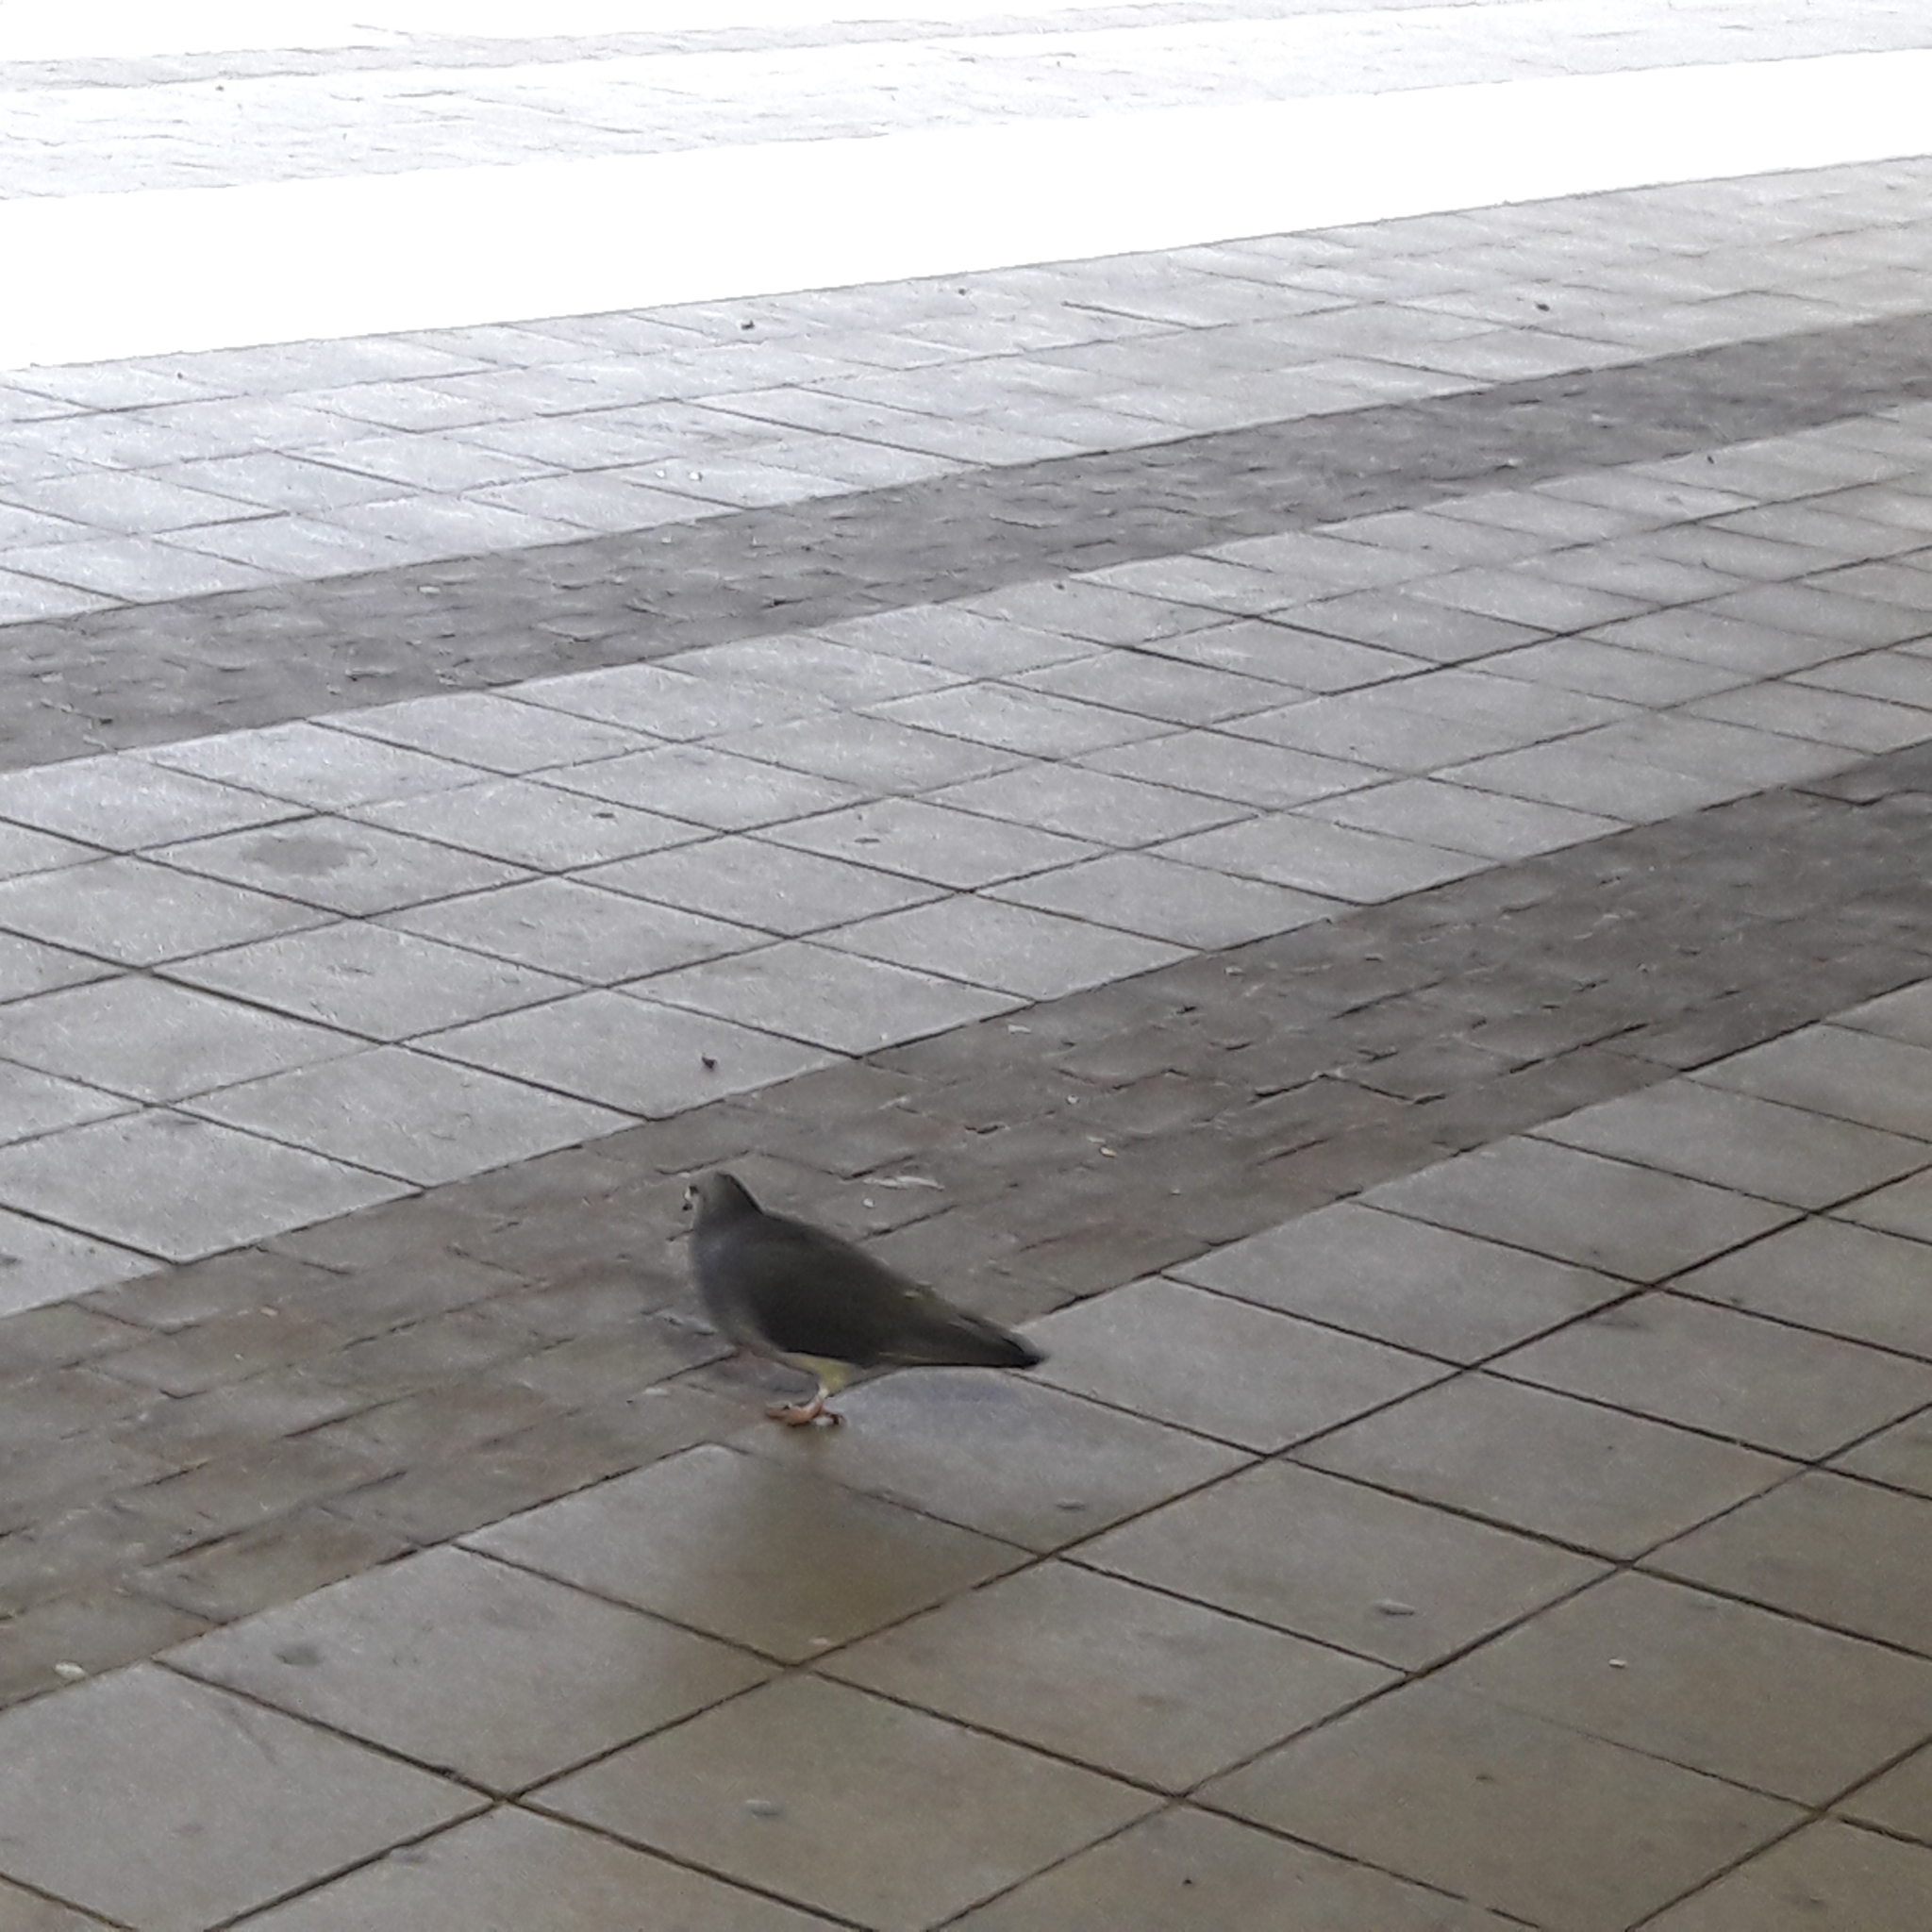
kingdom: Animalia
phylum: Chordata
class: Aves
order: Columbiformes
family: Columbidae
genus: Columba
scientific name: Columba livia
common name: Rock pigeon
